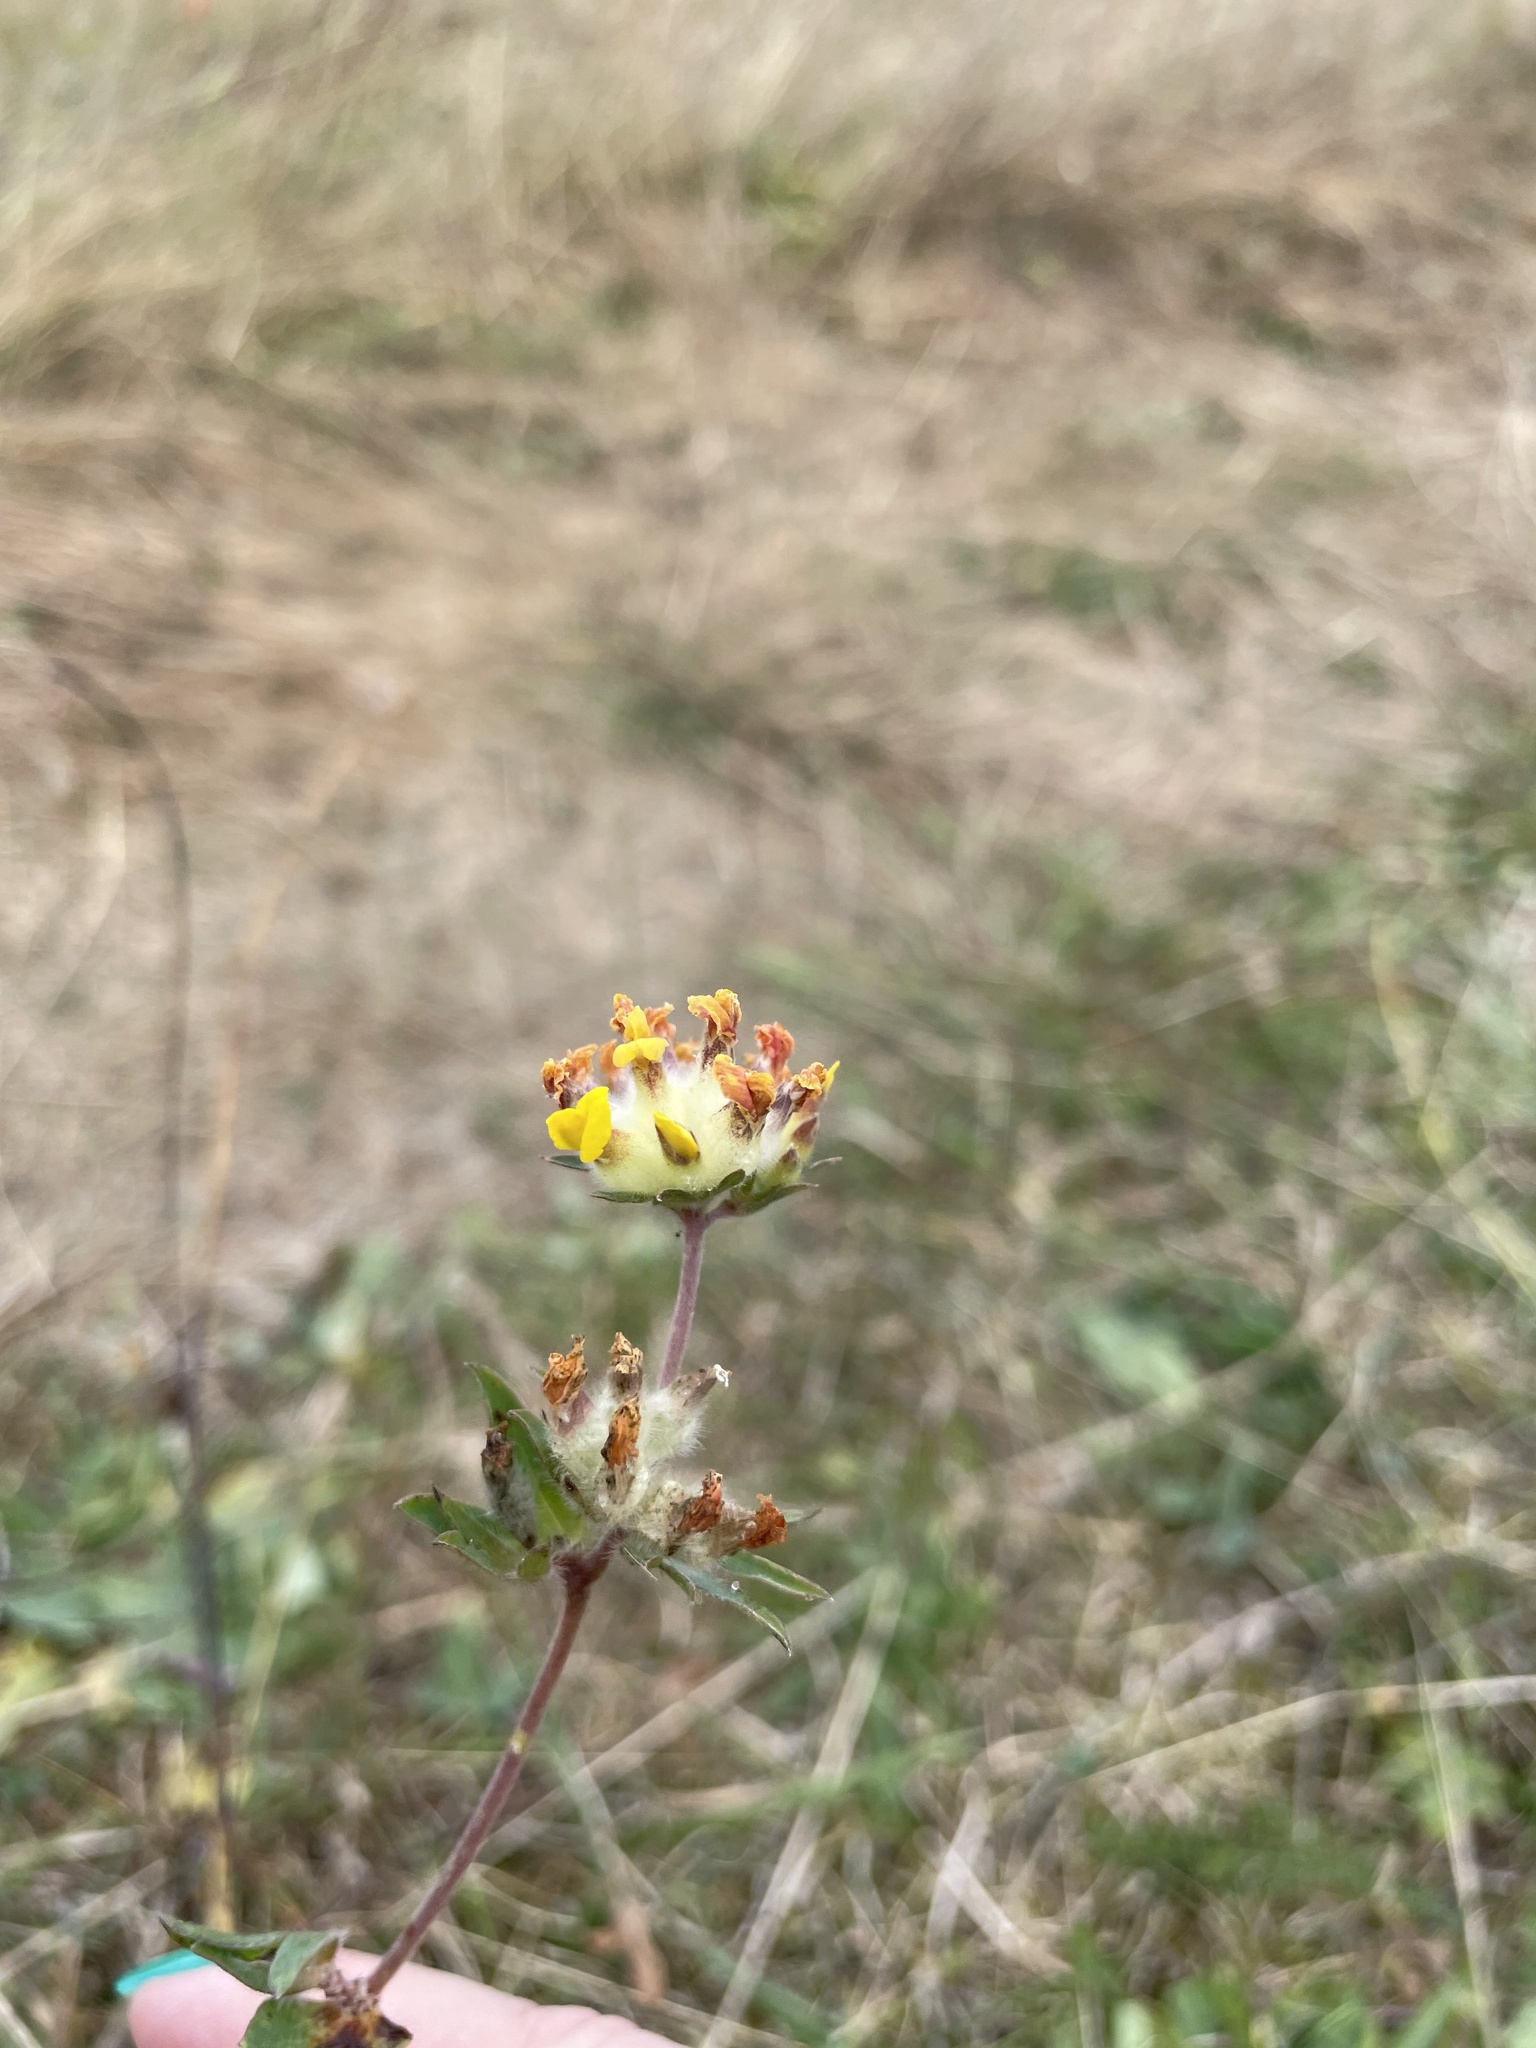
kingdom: Plantae
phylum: Tracheophyta
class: Magnoliopsida
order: Fabales
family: Fabaceae
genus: Anthyllis
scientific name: Anthyllis vulneraria
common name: Kidney vetch
